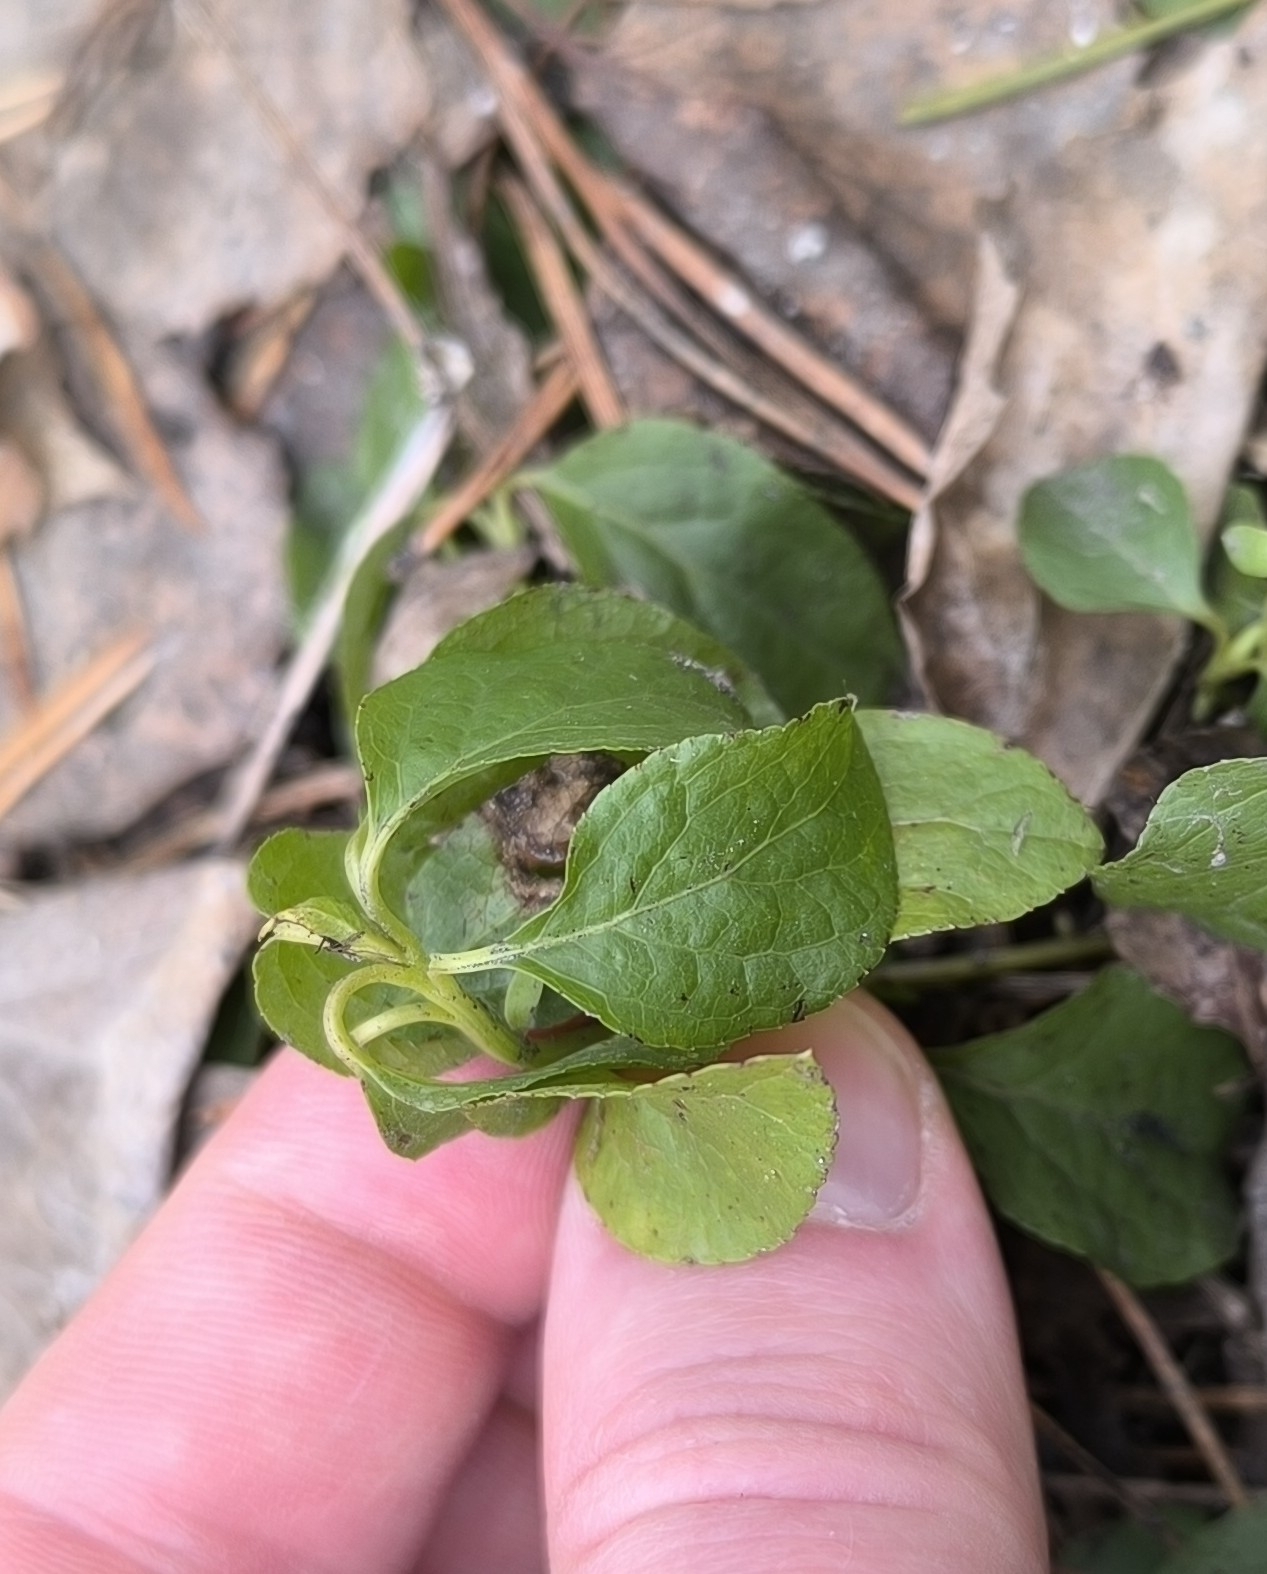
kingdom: Plantae
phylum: Tracheophyta
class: Magnoliopsida
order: Ericales
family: Ericaceae
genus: Orthilia
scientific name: Orthilia secunda
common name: One-sided orthilia
